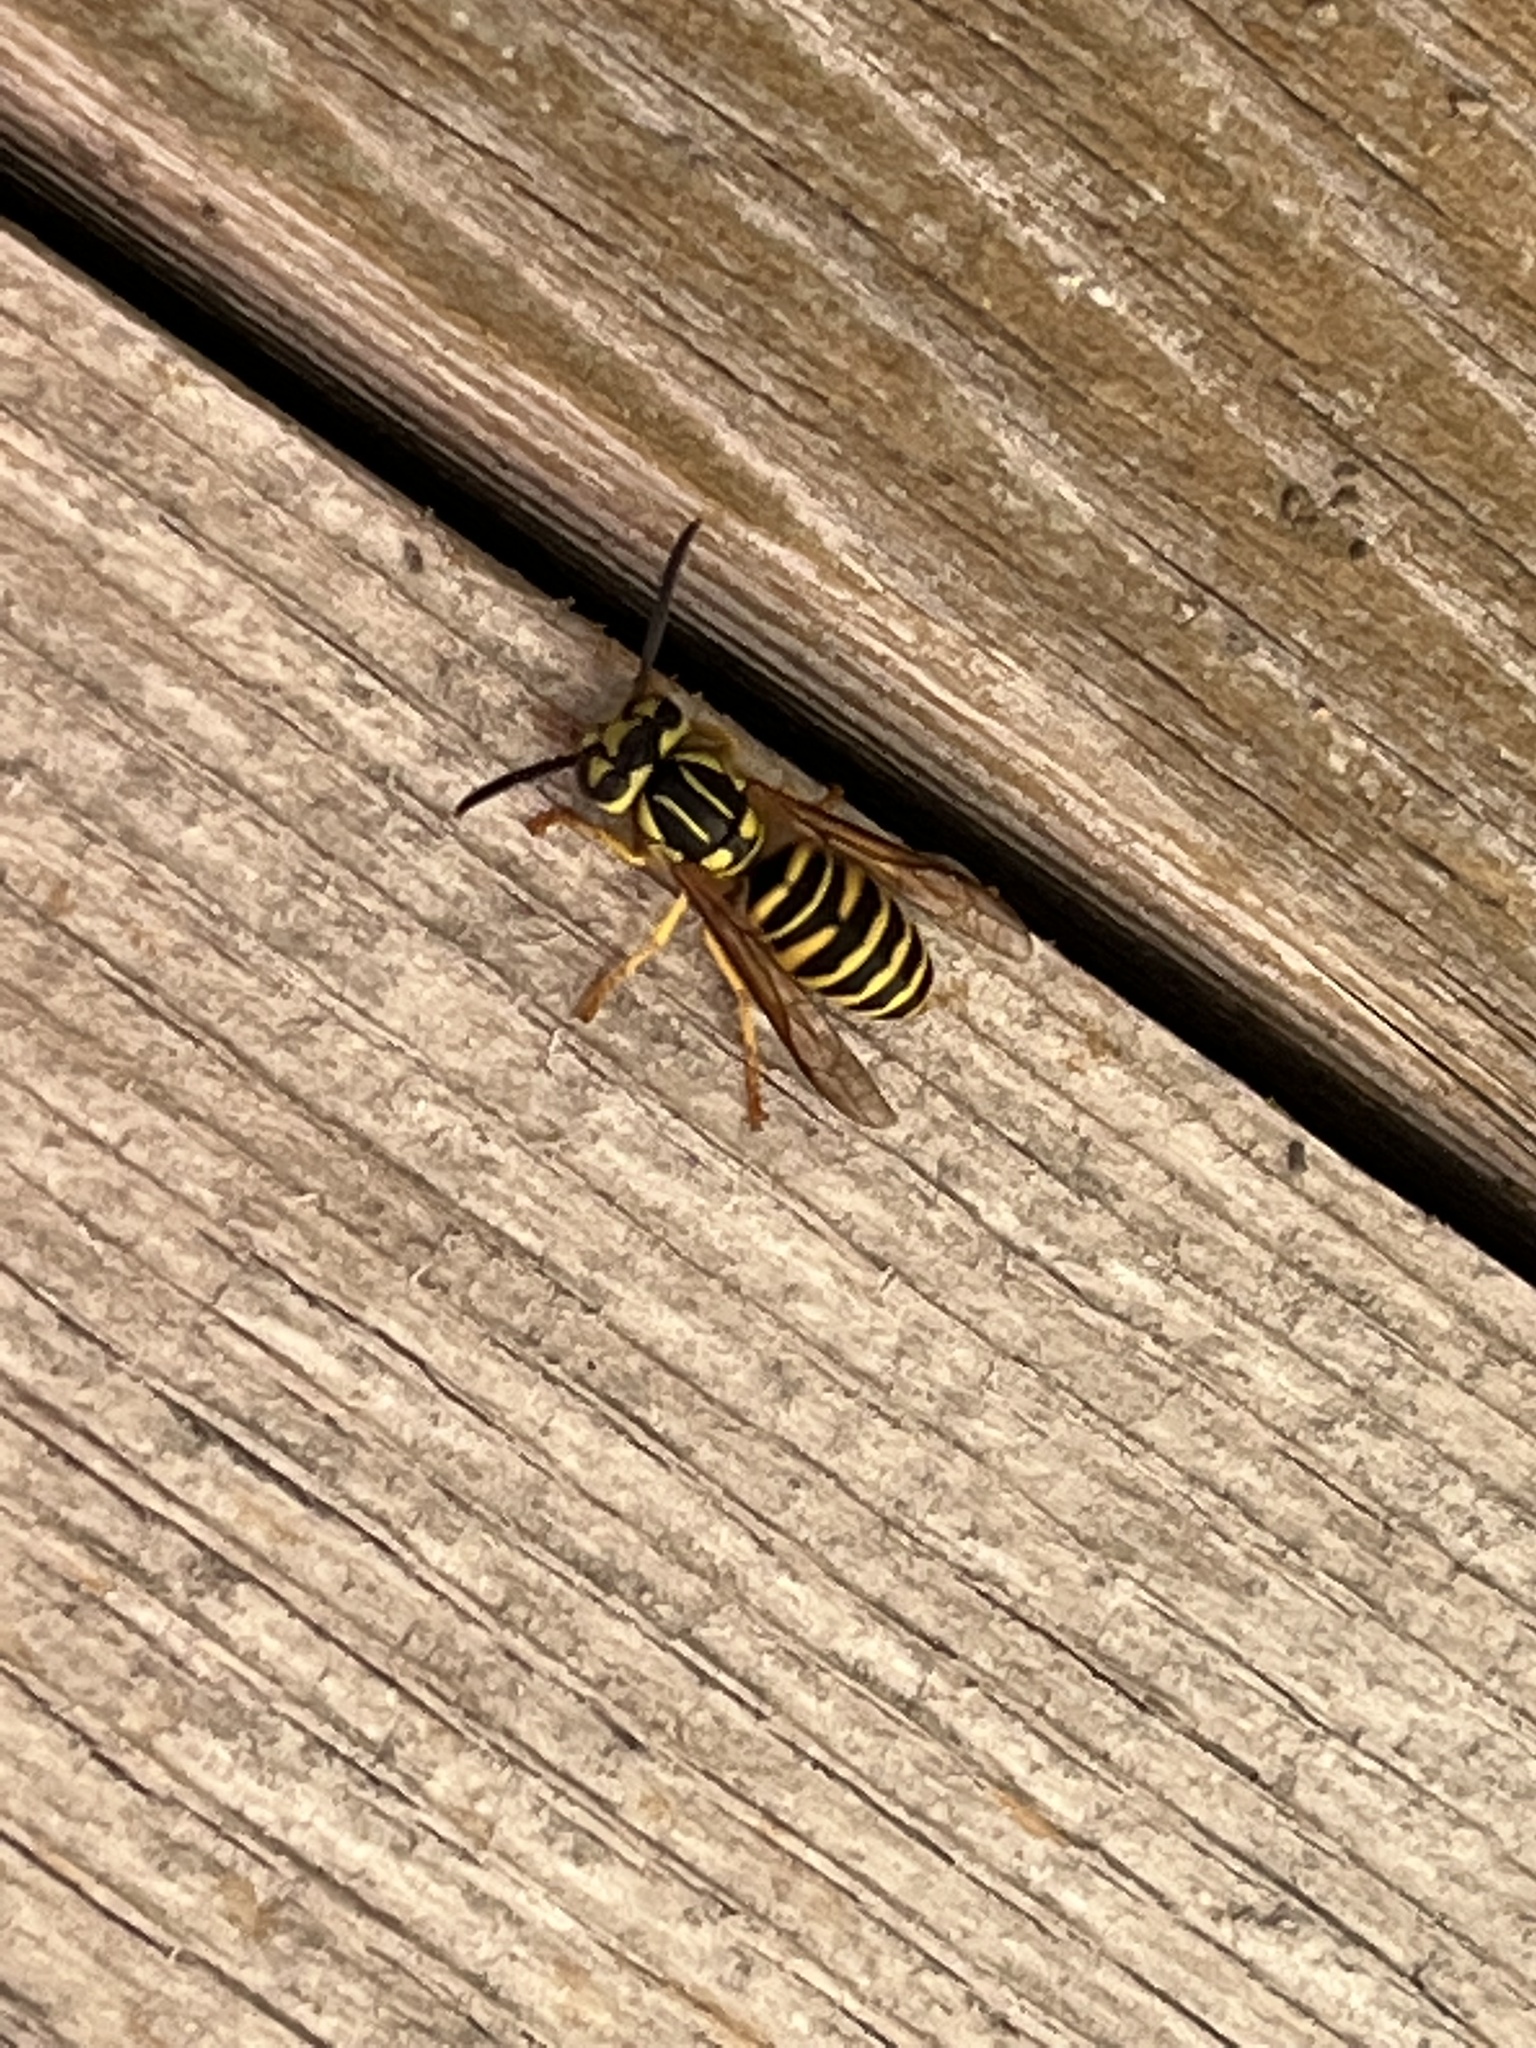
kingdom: Animalia
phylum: Arthropoda
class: Insecta
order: Hymenoptera
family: Vespidae
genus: Vespula
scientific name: Vespula squamosa
